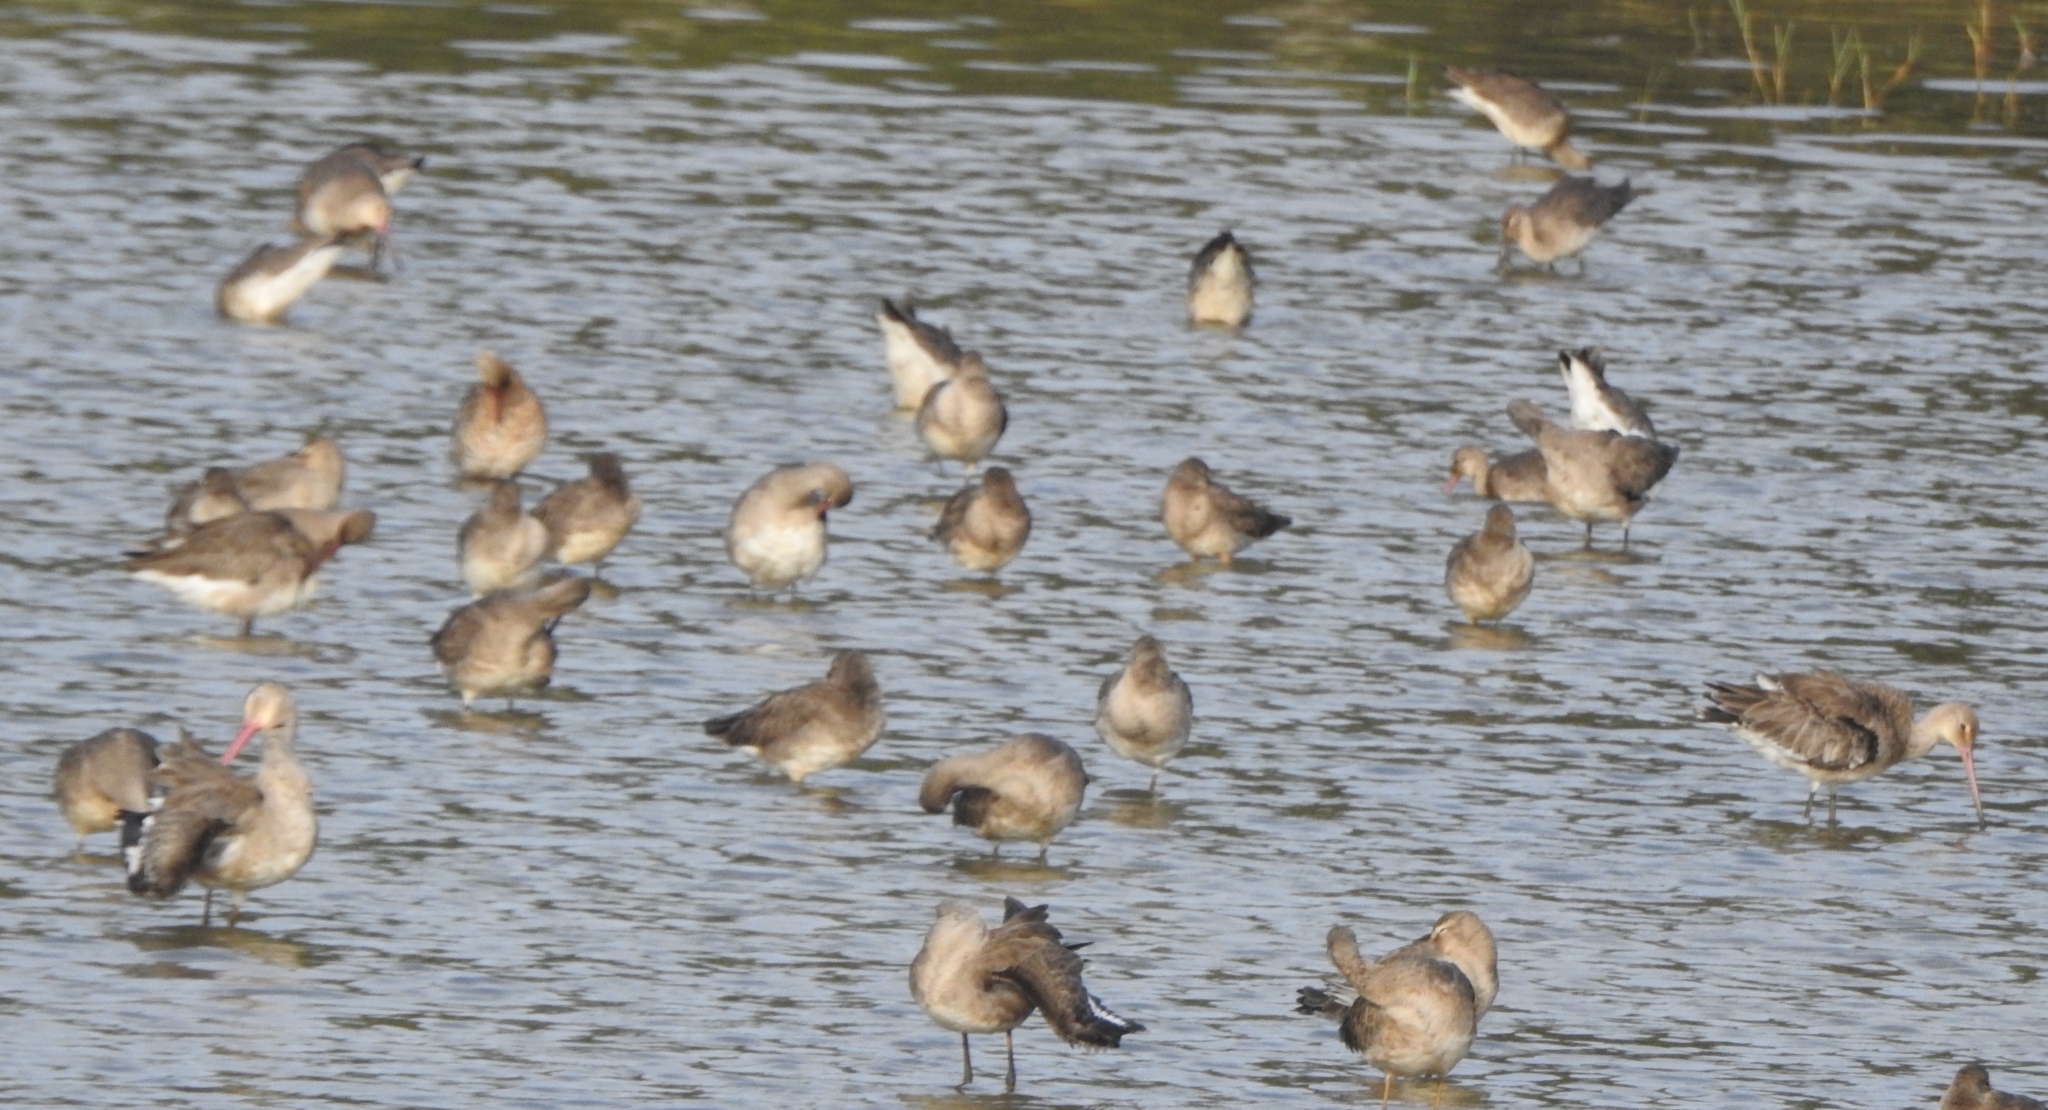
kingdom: Animalia
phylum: Chordata
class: Aves
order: Charadriiformes
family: Scolopacidae
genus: Limosa
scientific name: Limosa limosa
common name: Black-tailed godwit
